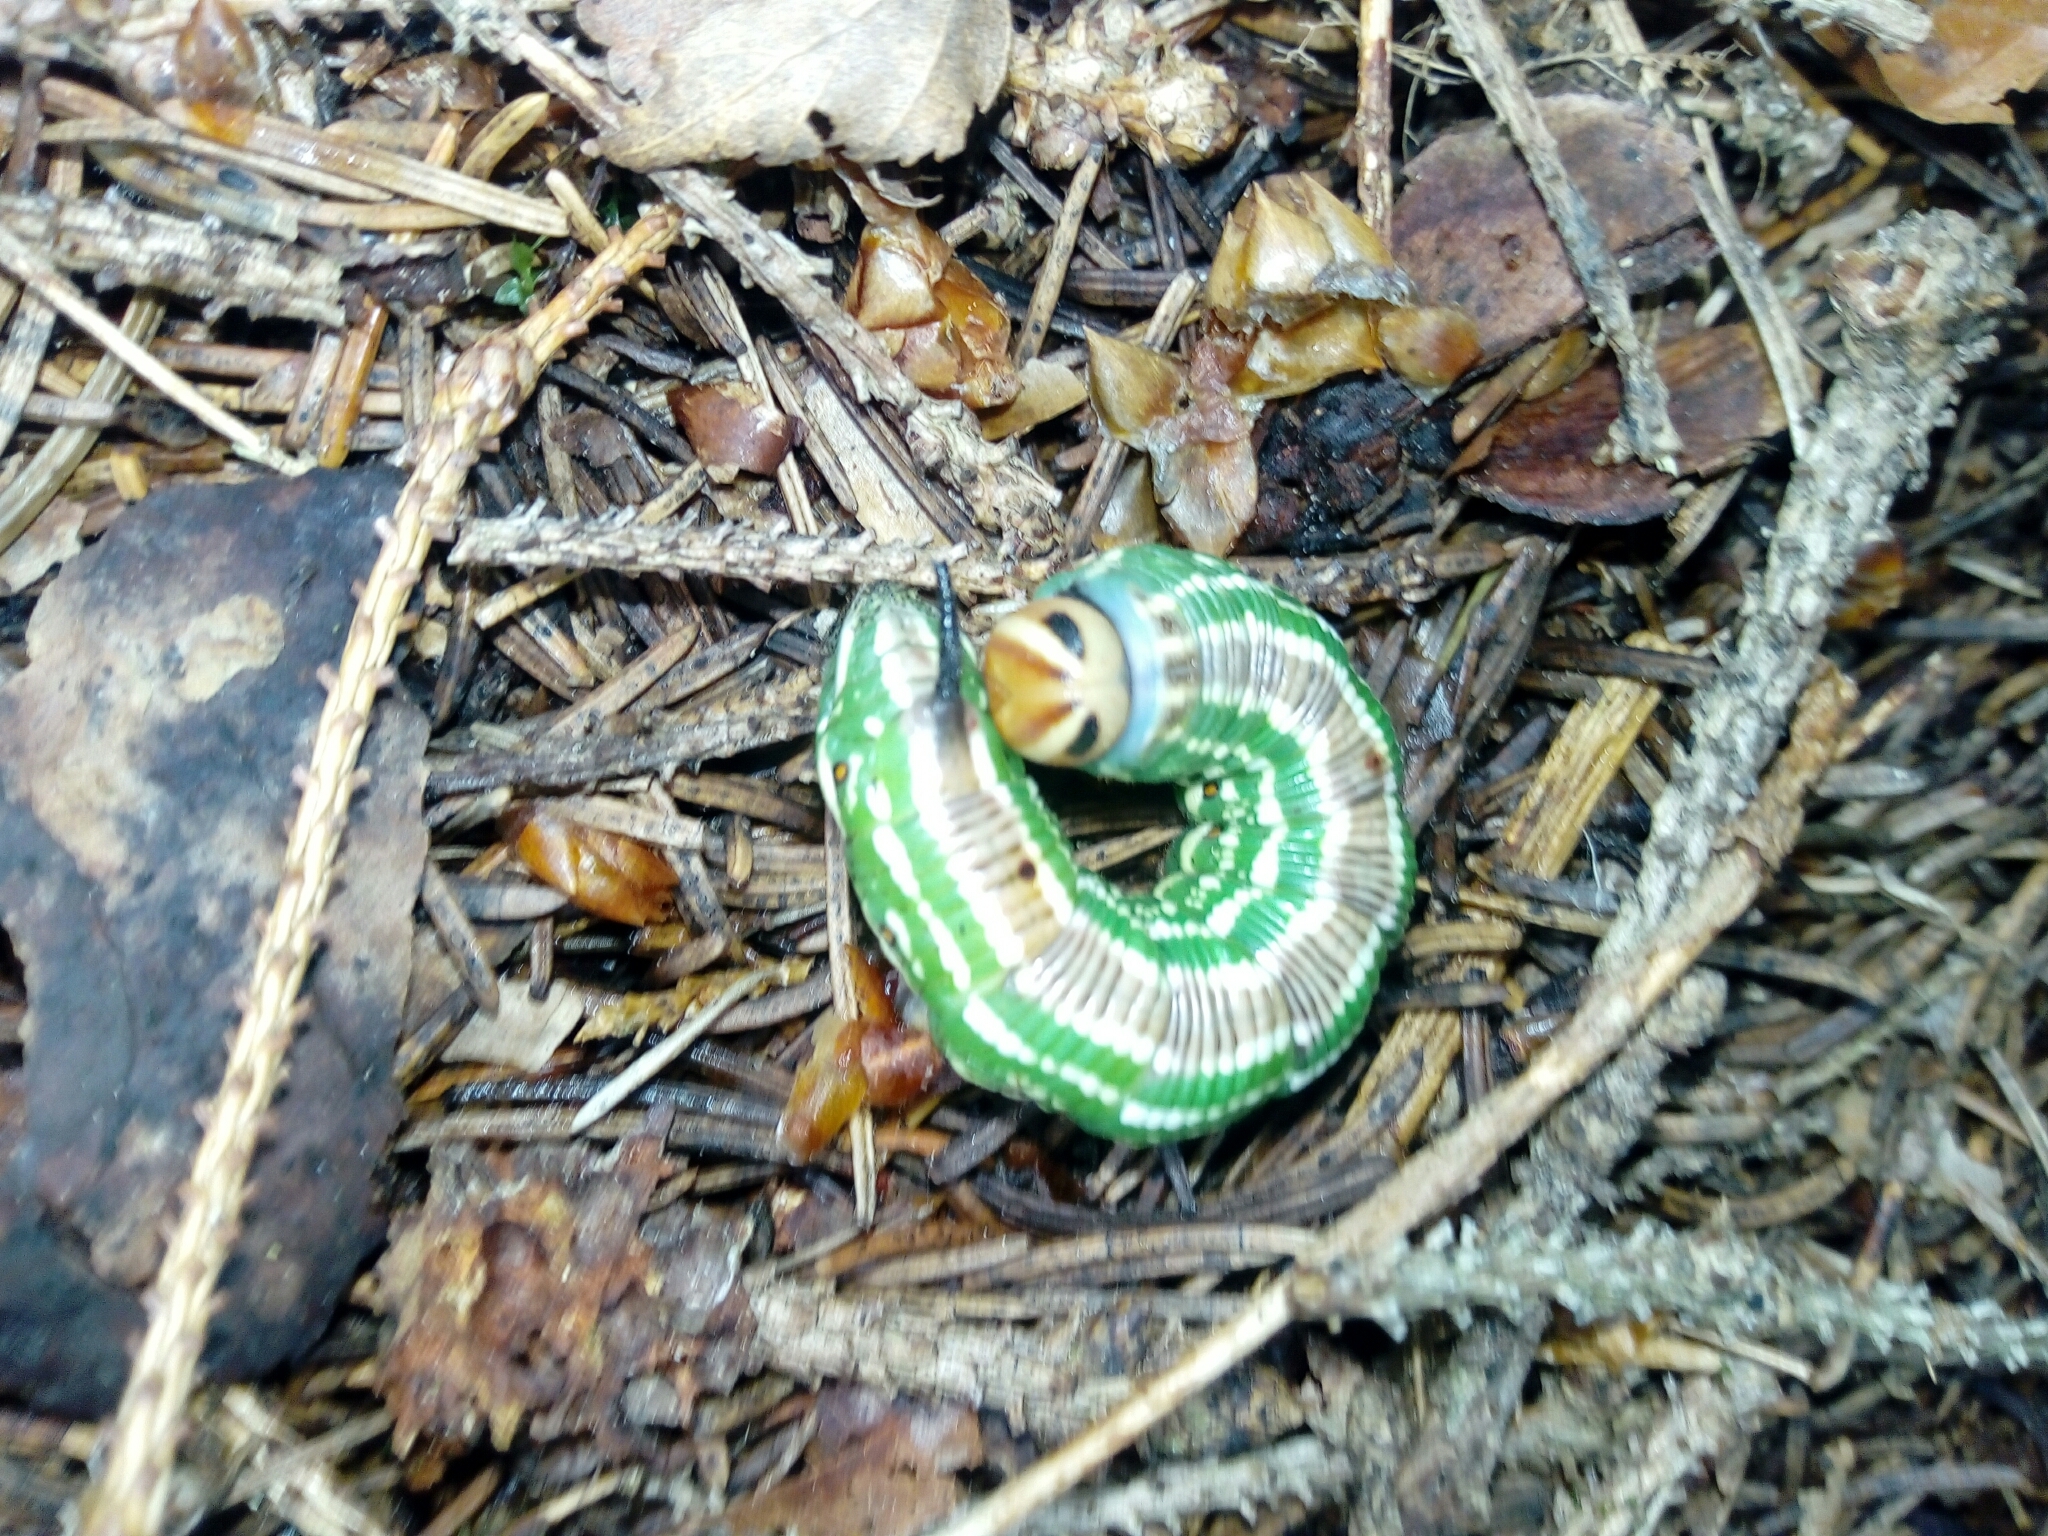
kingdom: Animalia
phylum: Arthropoda
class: Insecta
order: Lepidoptera
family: Sphingidae
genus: Sphinx
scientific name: Sphinx pinastri
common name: Pine hawk-moth
